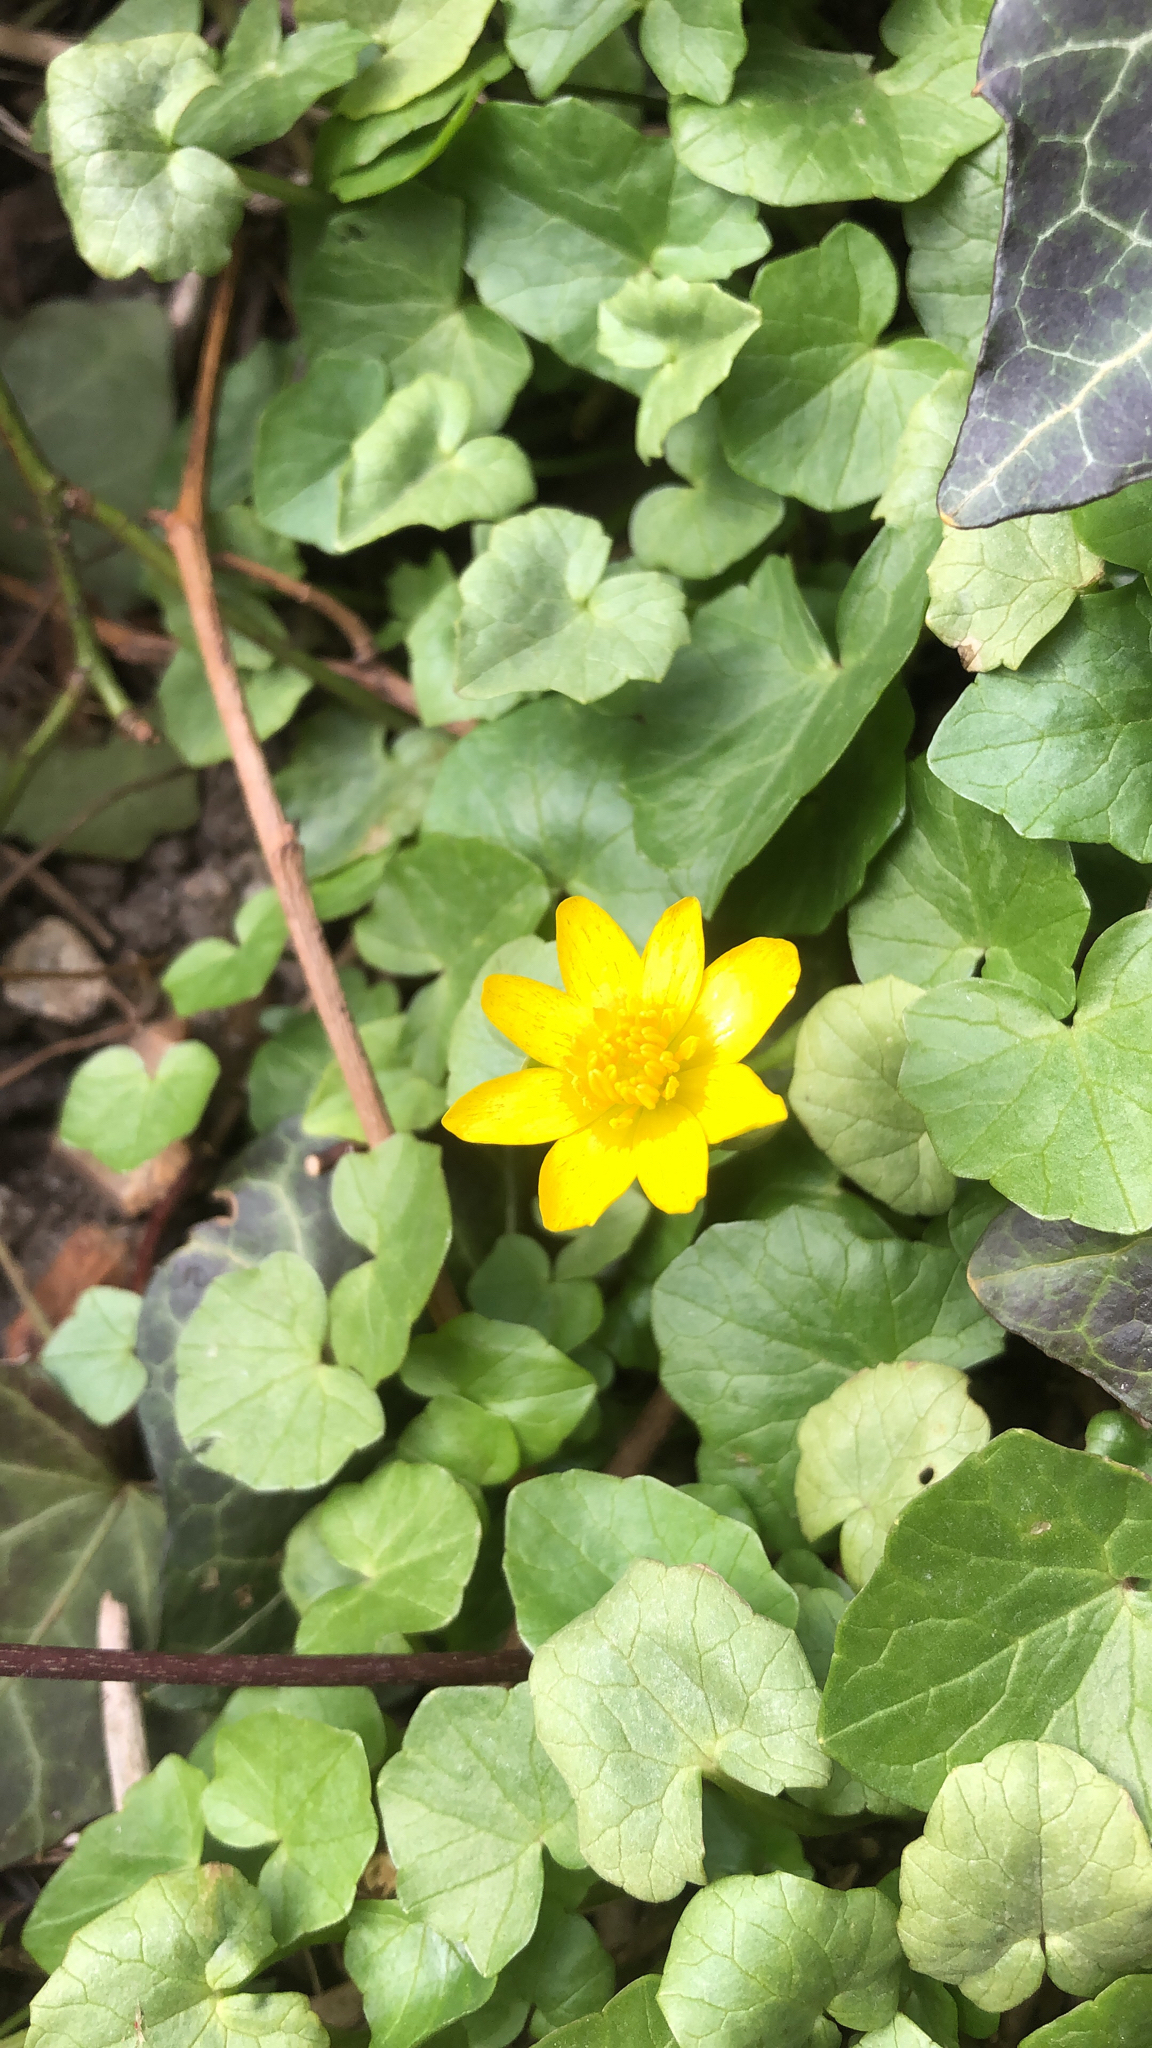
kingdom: Plantae
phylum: Tracheophyta
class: Magnoliopsida
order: Ranunculales
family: Ranunculaceae
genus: Ficaria
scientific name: Ficaria verna
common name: Lesser celandine
